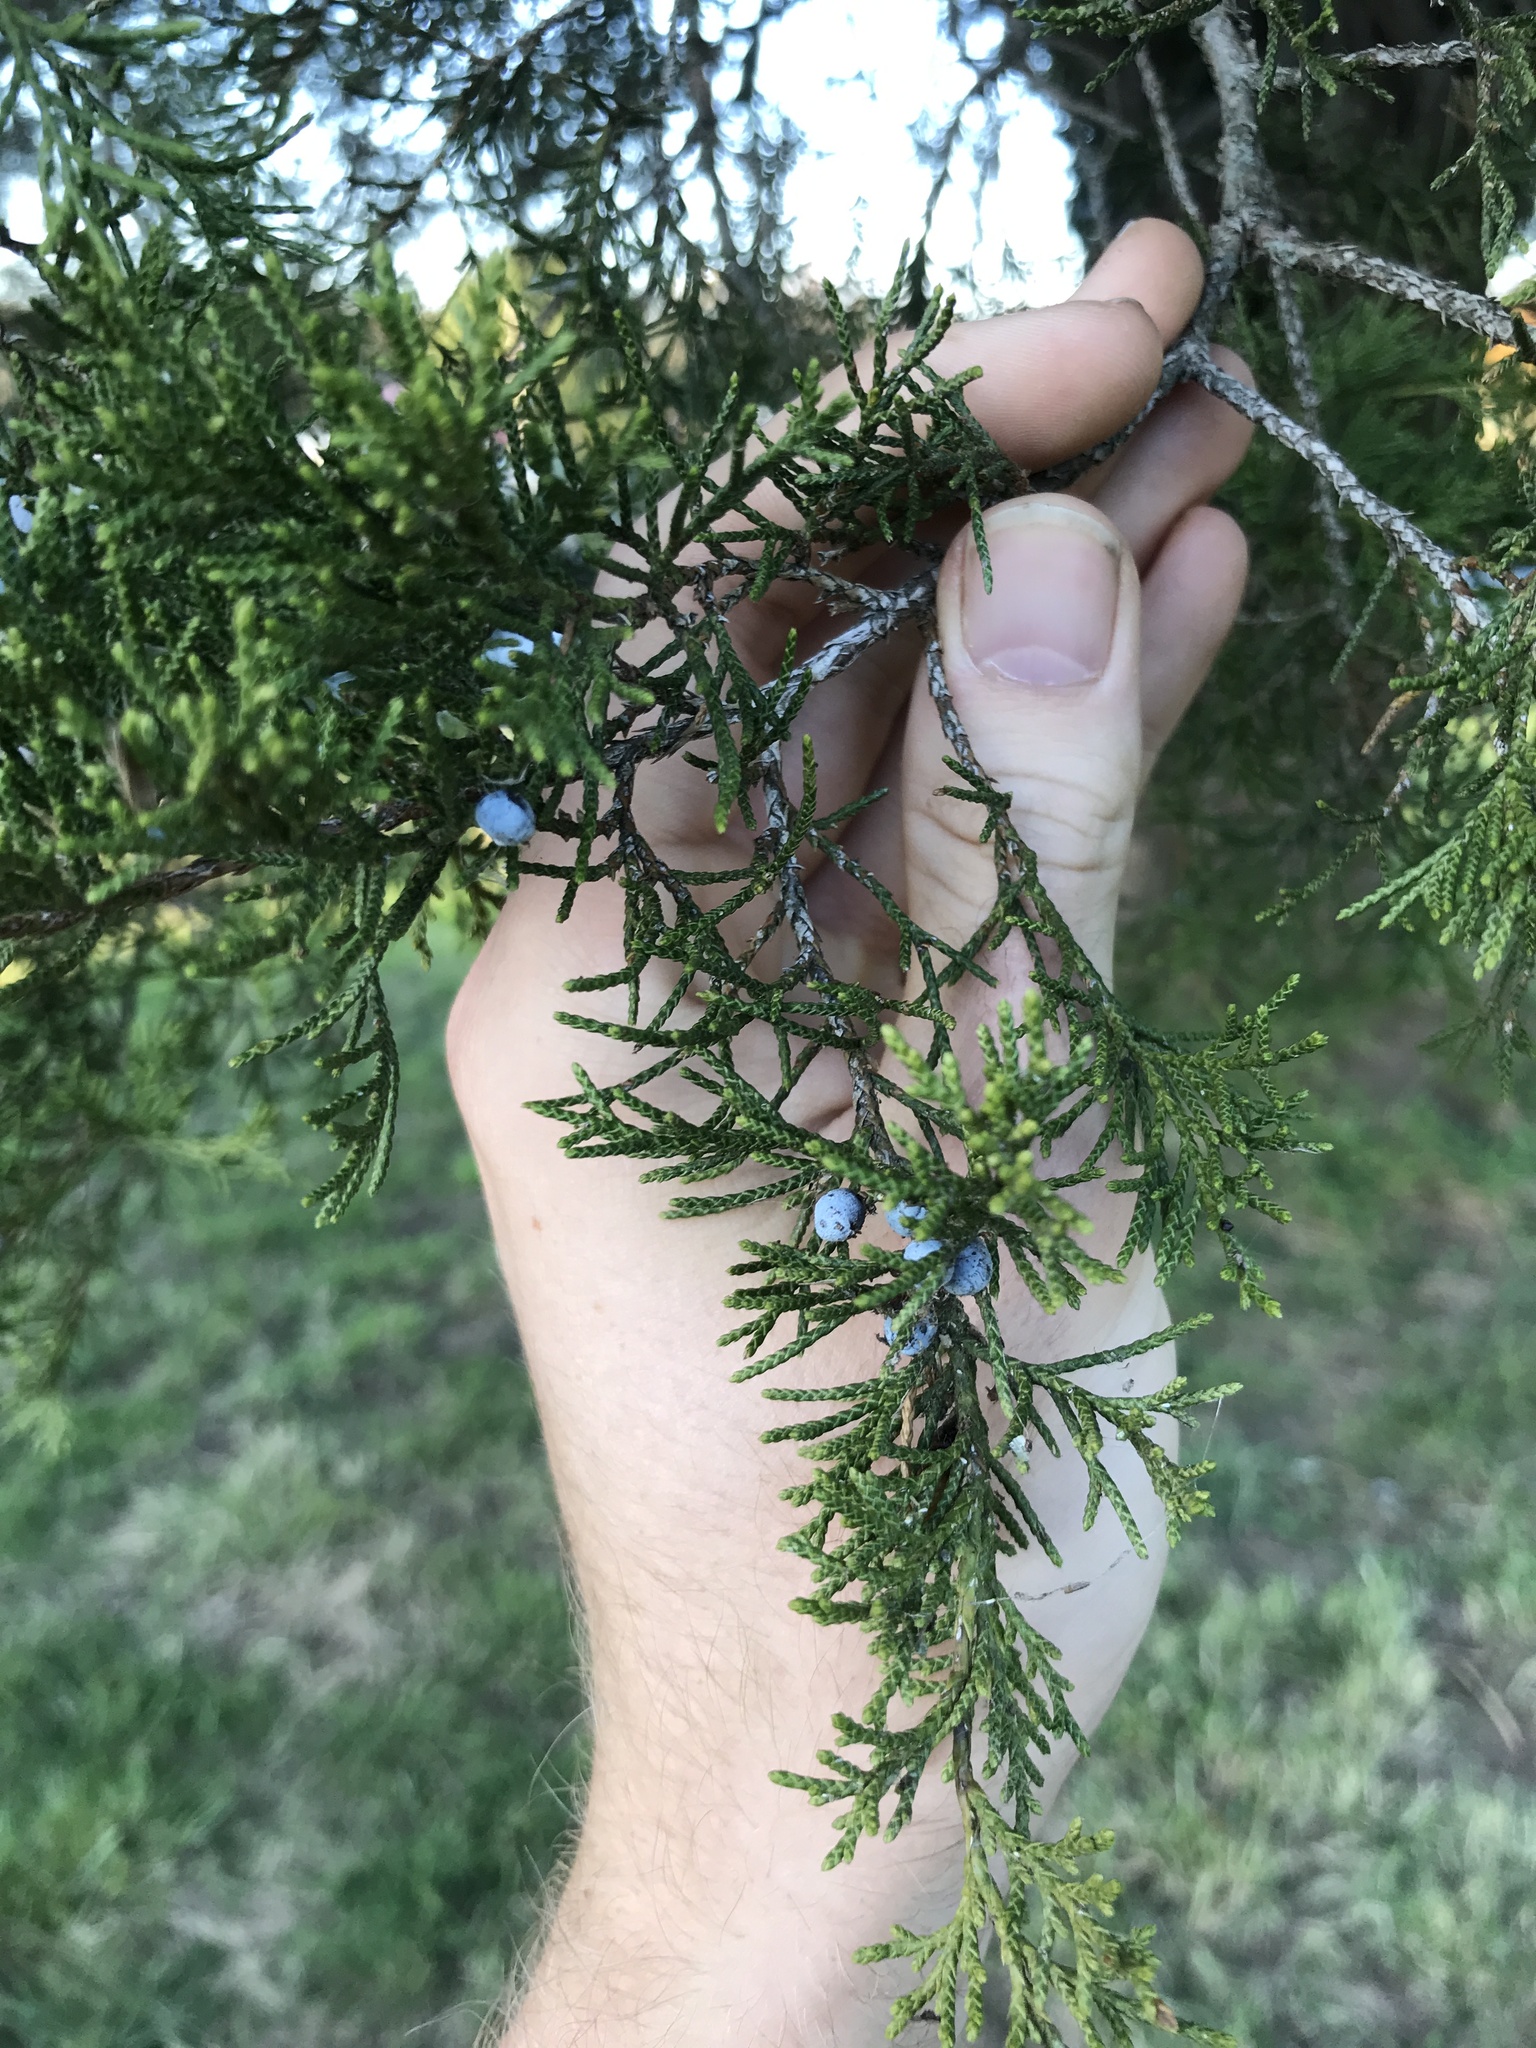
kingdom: Plantae
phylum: Tracheophyta
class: Pinopsida
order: Pinales
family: Cupressaceae
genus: Juniperus
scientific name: Juniperus virginiana
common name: Red juniper
